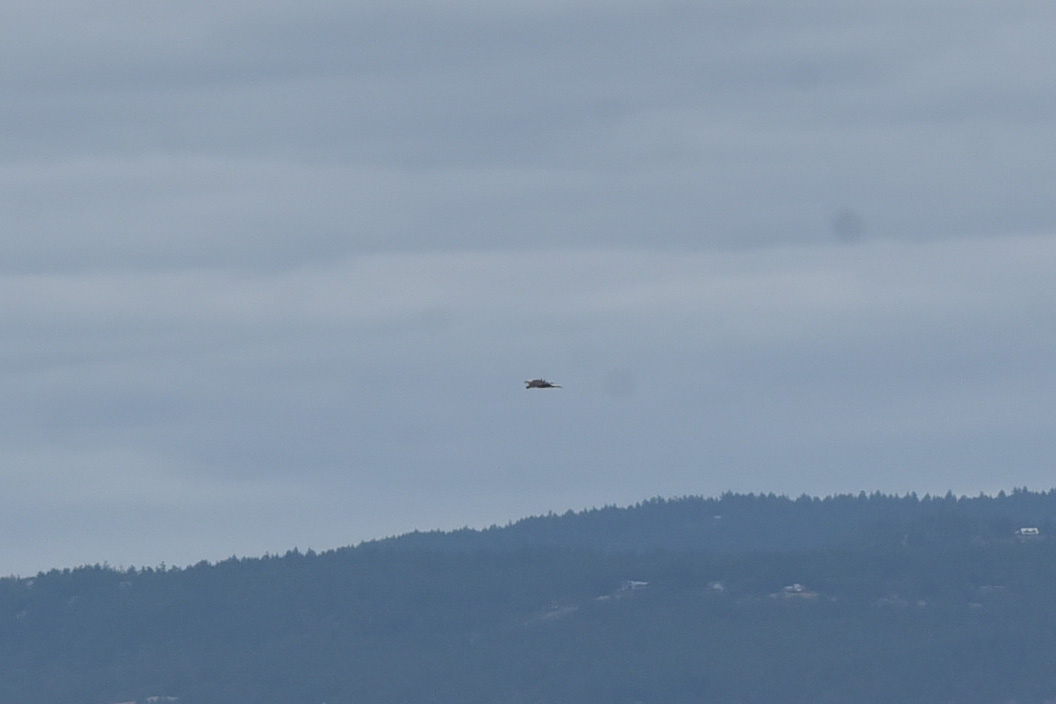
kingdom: Animalia
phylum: Chordata
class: Aves
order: Accipitriformes
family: Accipitridae
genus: Haliaeetus
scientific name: Haliaeetus leucocephalus
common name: Bald eagle
